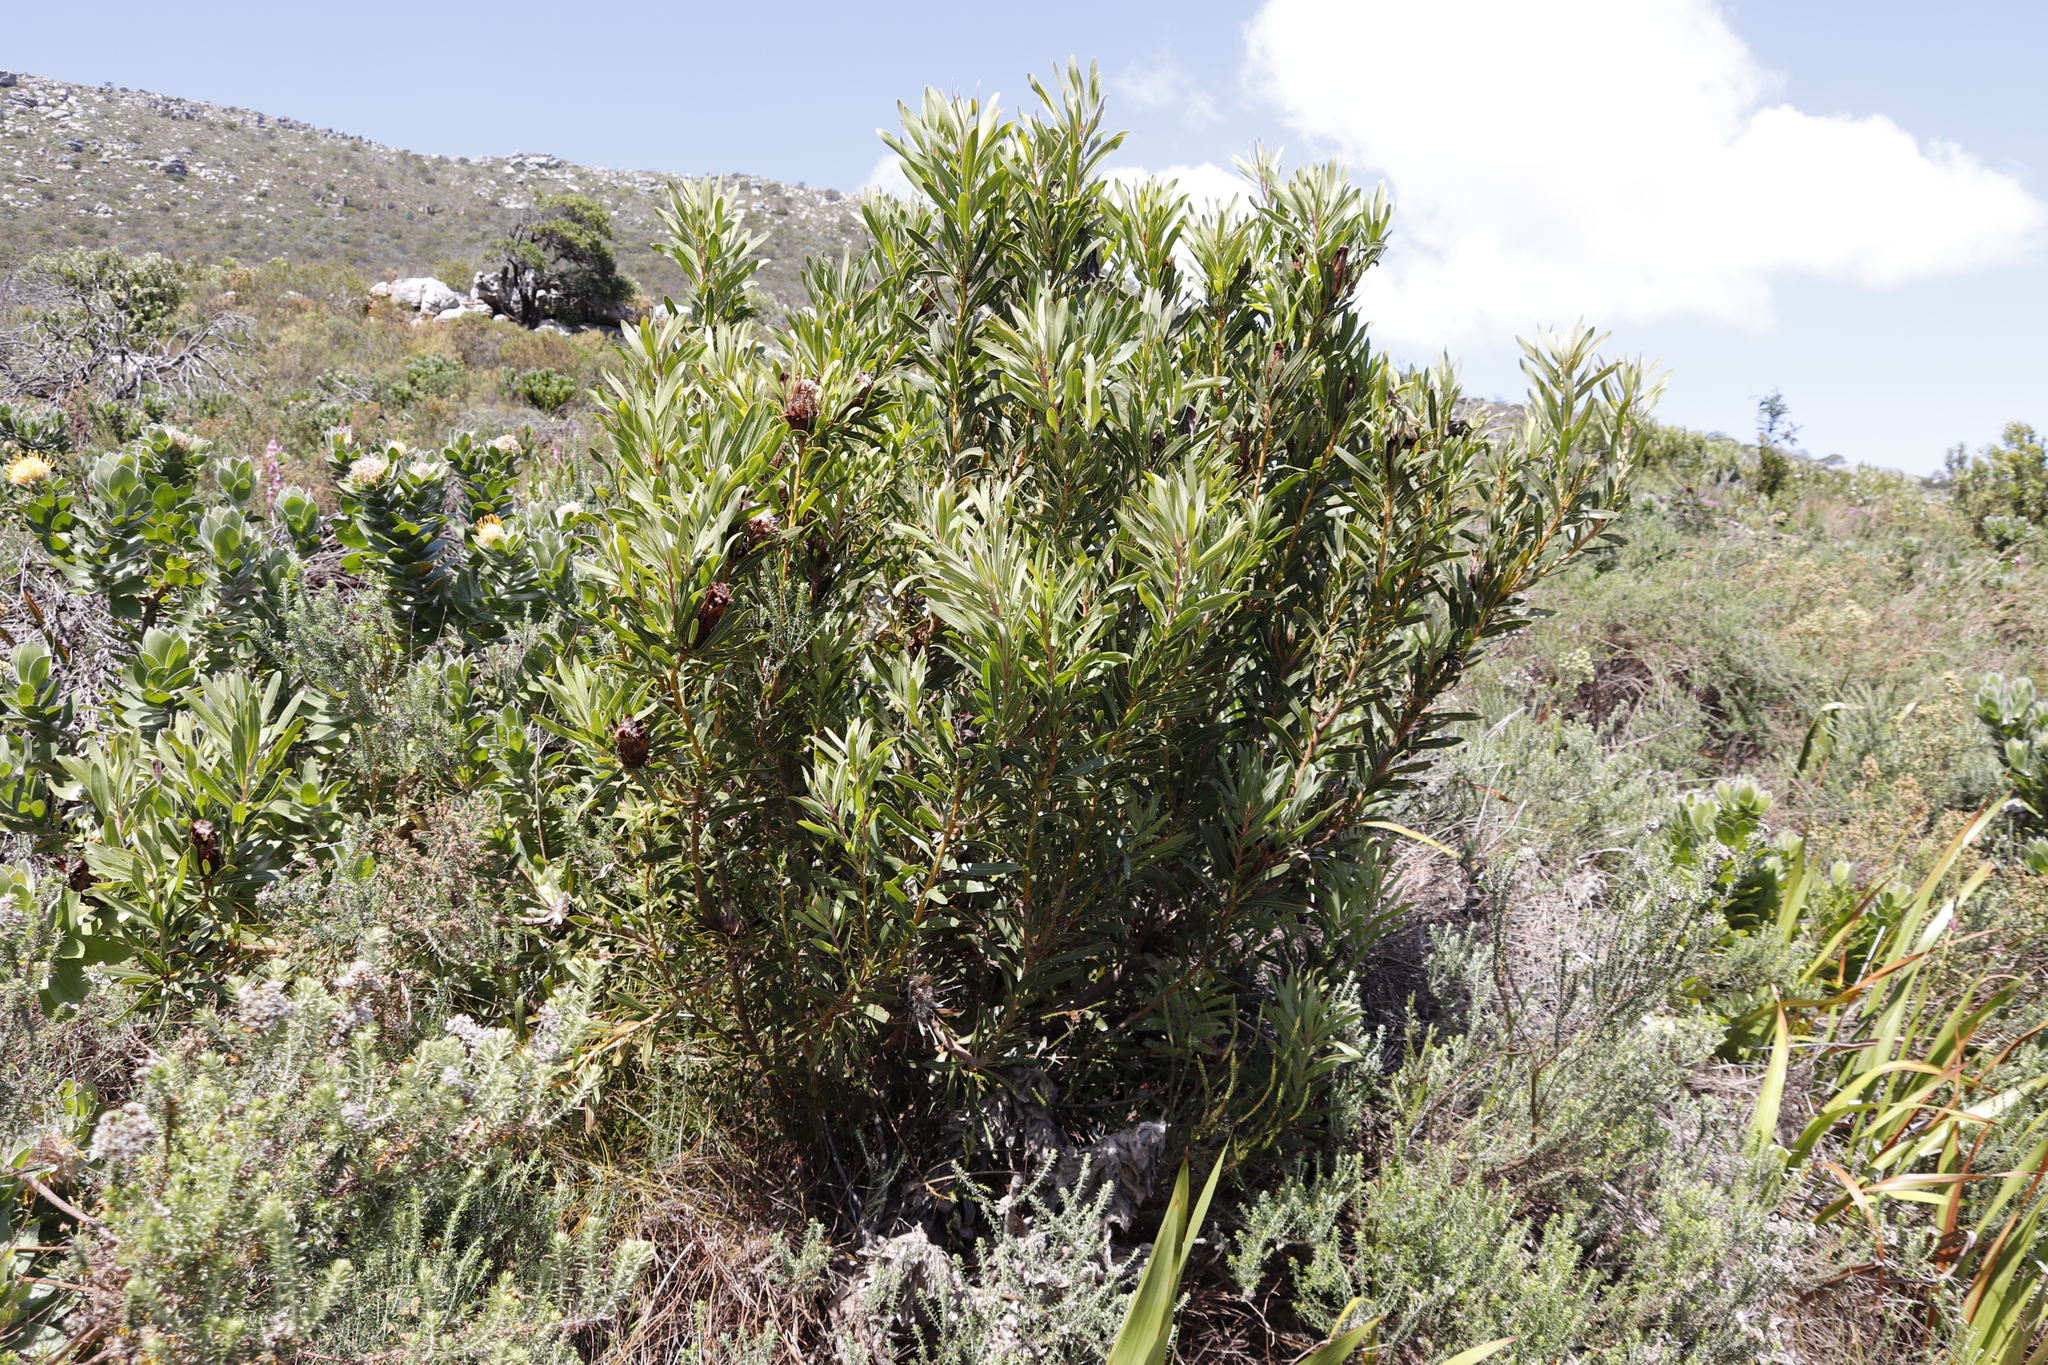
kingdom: Plantae
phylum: Tracheophyta
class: Magnoliopsida
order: Proteales
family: Proteaceae
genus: Protea
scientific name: Protea lepidocarpodendron
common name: Black-bearded protea
